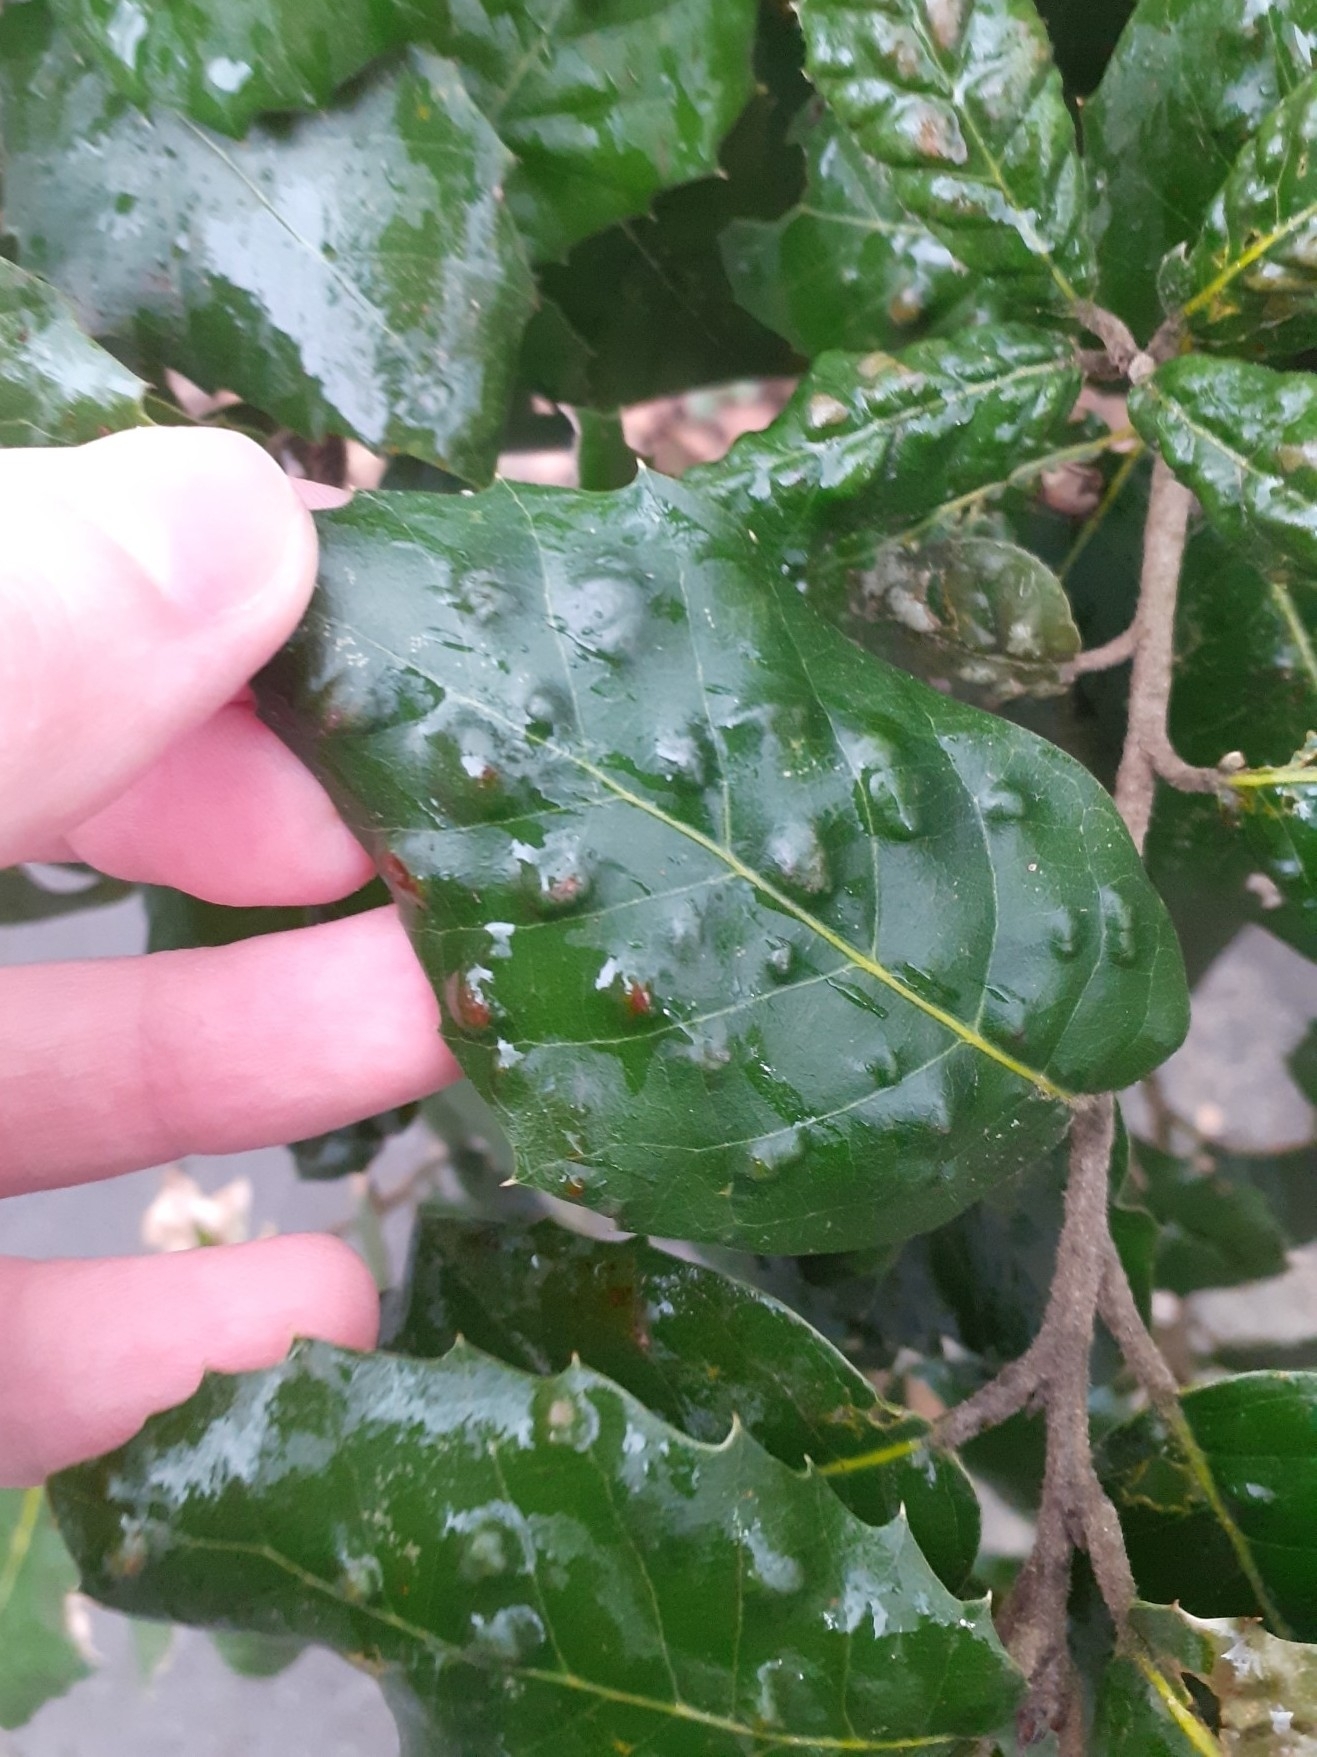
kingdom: Animalia
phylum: Arthropoda
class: Arachnida
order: Trombidiformes
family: Eriophyidae
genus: Aceria
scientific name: Aceria ilicis
